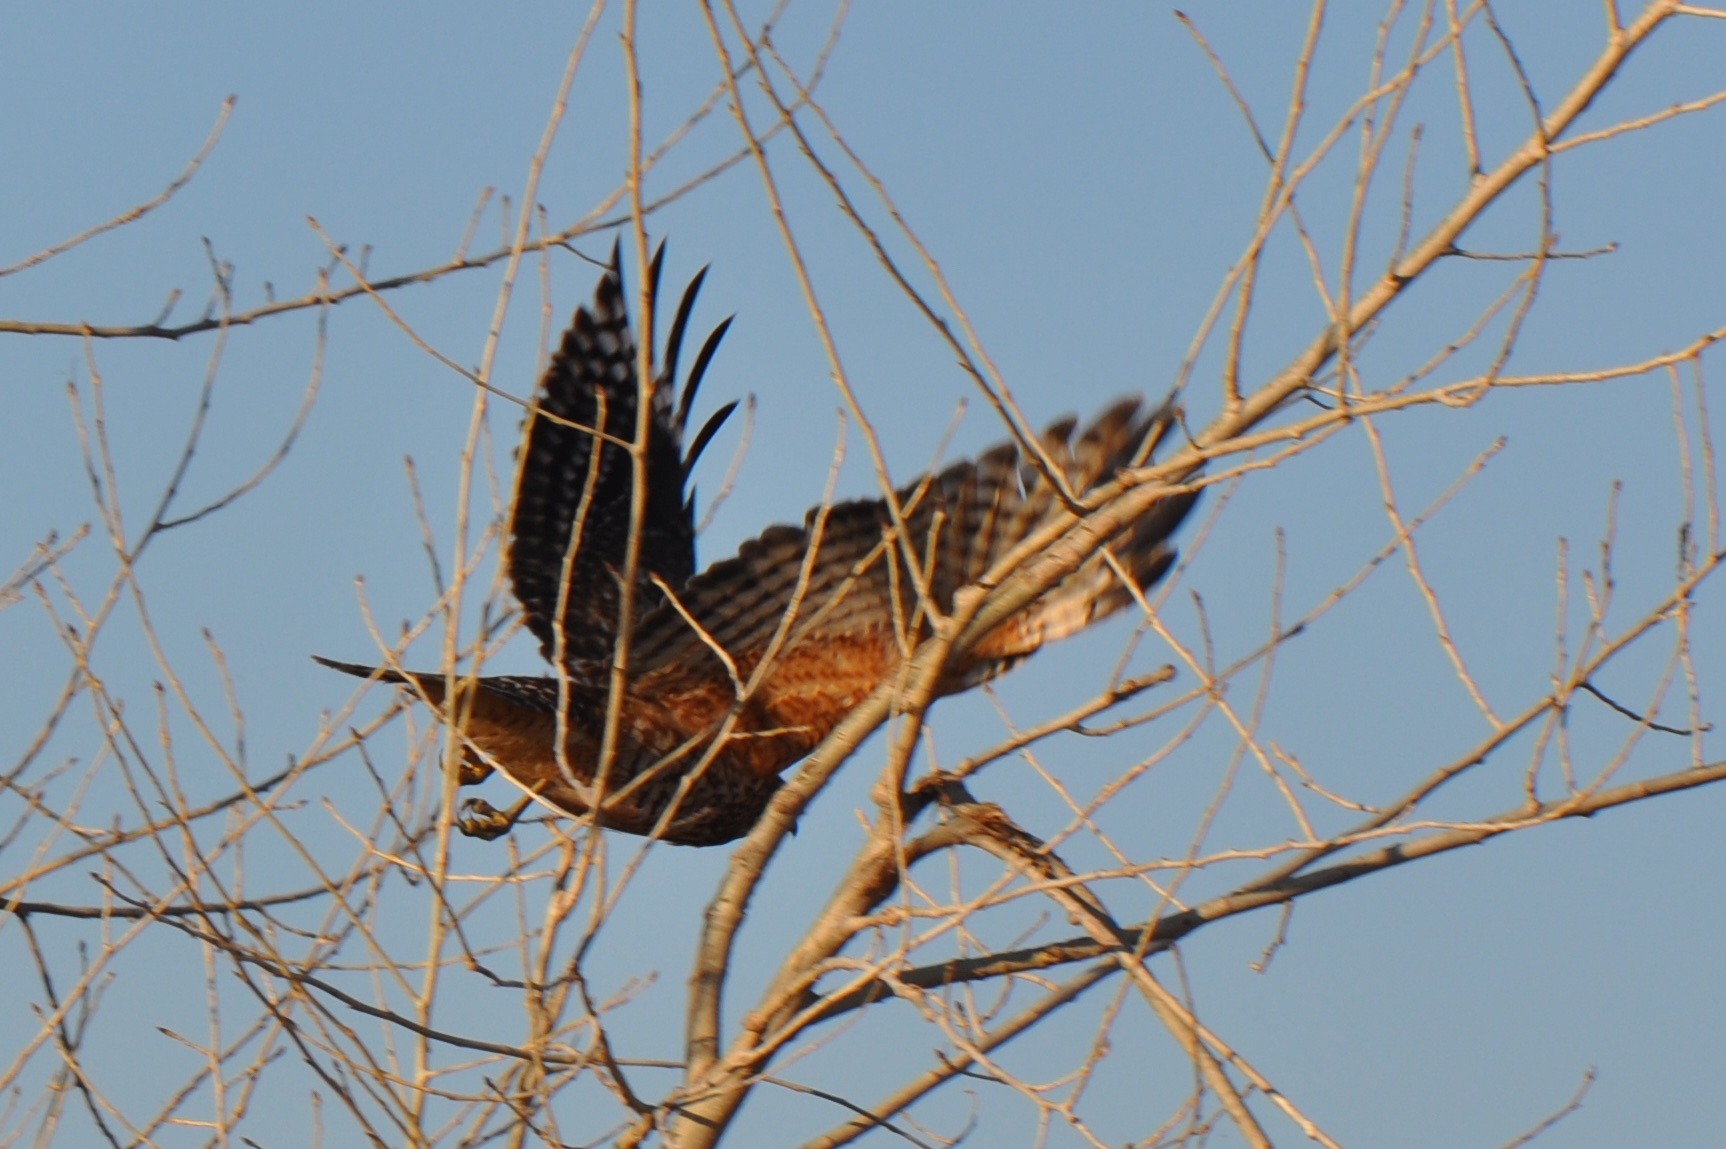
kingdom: Animalia
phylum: Chordata
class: Aves
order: Accipitriformes
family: Accipitridae
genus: Buteo
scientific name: Buteo lineatus
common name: Red-shouldered hawk
